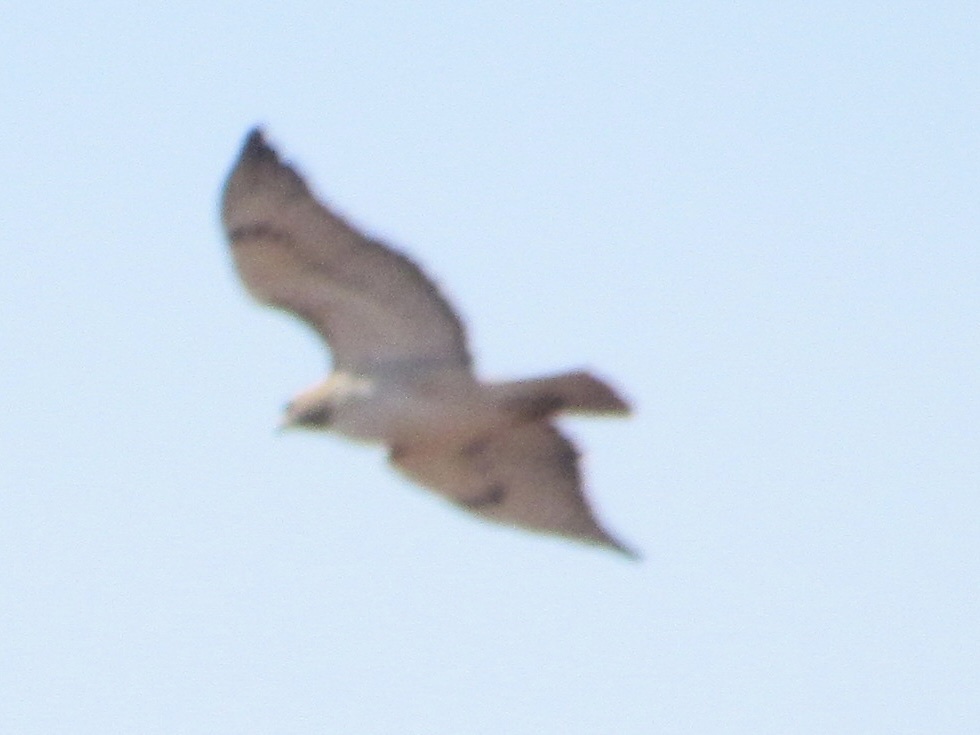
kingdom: Animalia
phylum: Chordata
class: Aves
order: Accipitriformes
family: Accipitridae
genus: Buteo
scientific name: Buteo jamaicensis
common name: Red-tailed hawk
